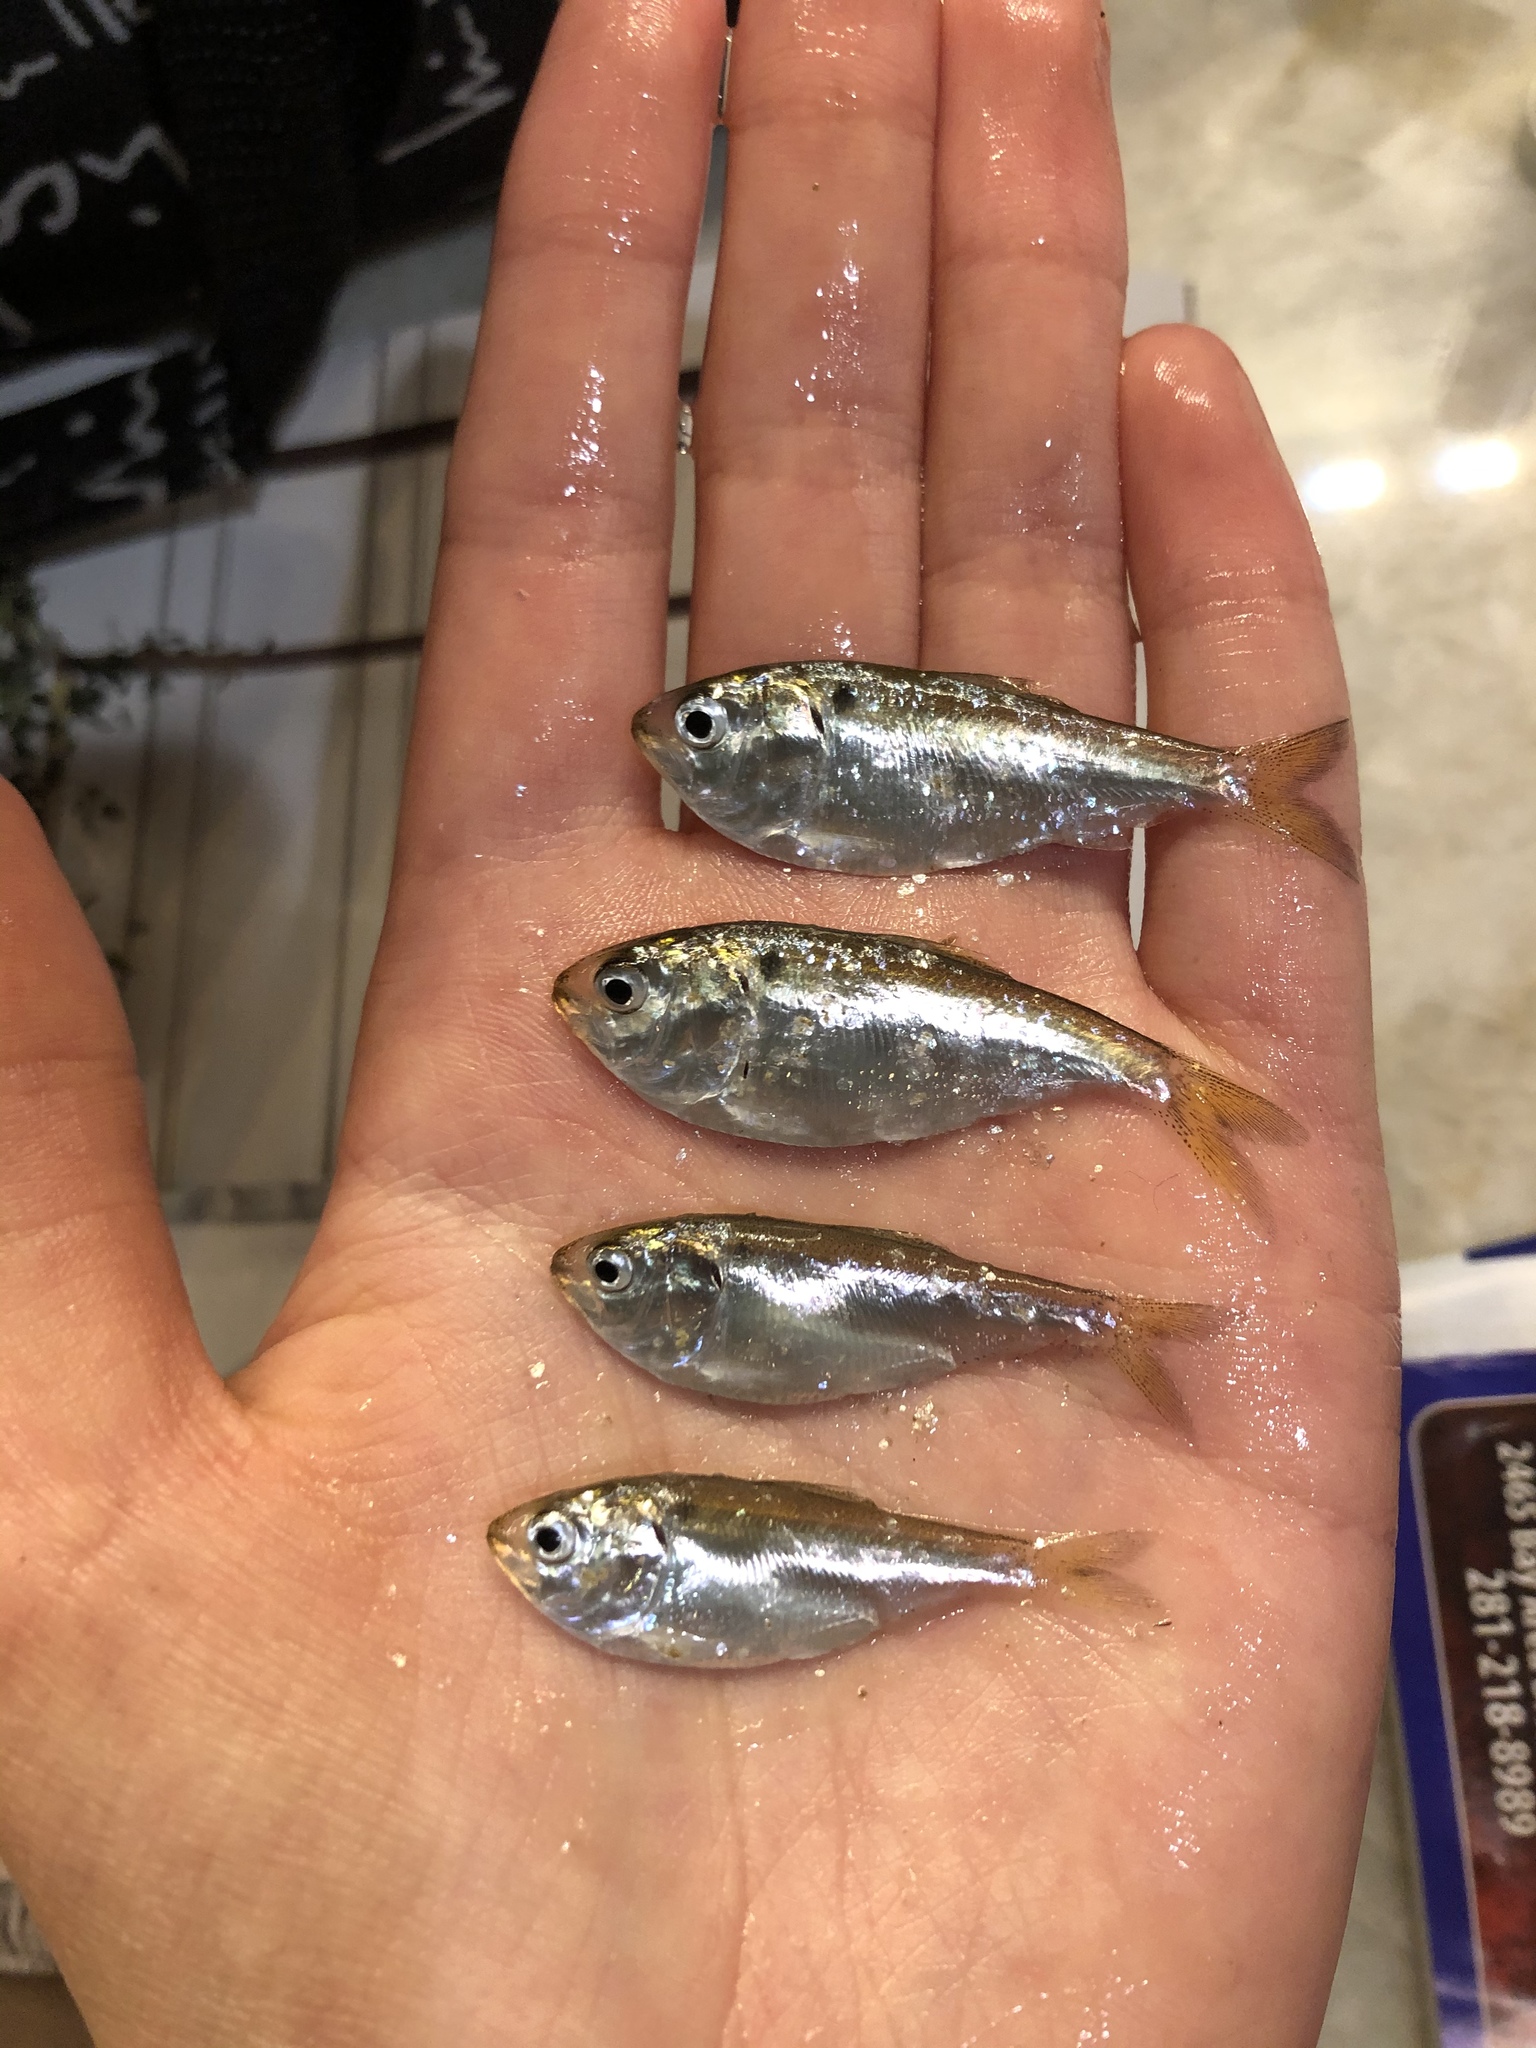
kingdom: Animalia
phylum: Chordata
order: Clupeiformes
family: Clupeidae
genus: Brevoortia
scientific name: Brevoortia patronus
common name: Gulf menhaden
